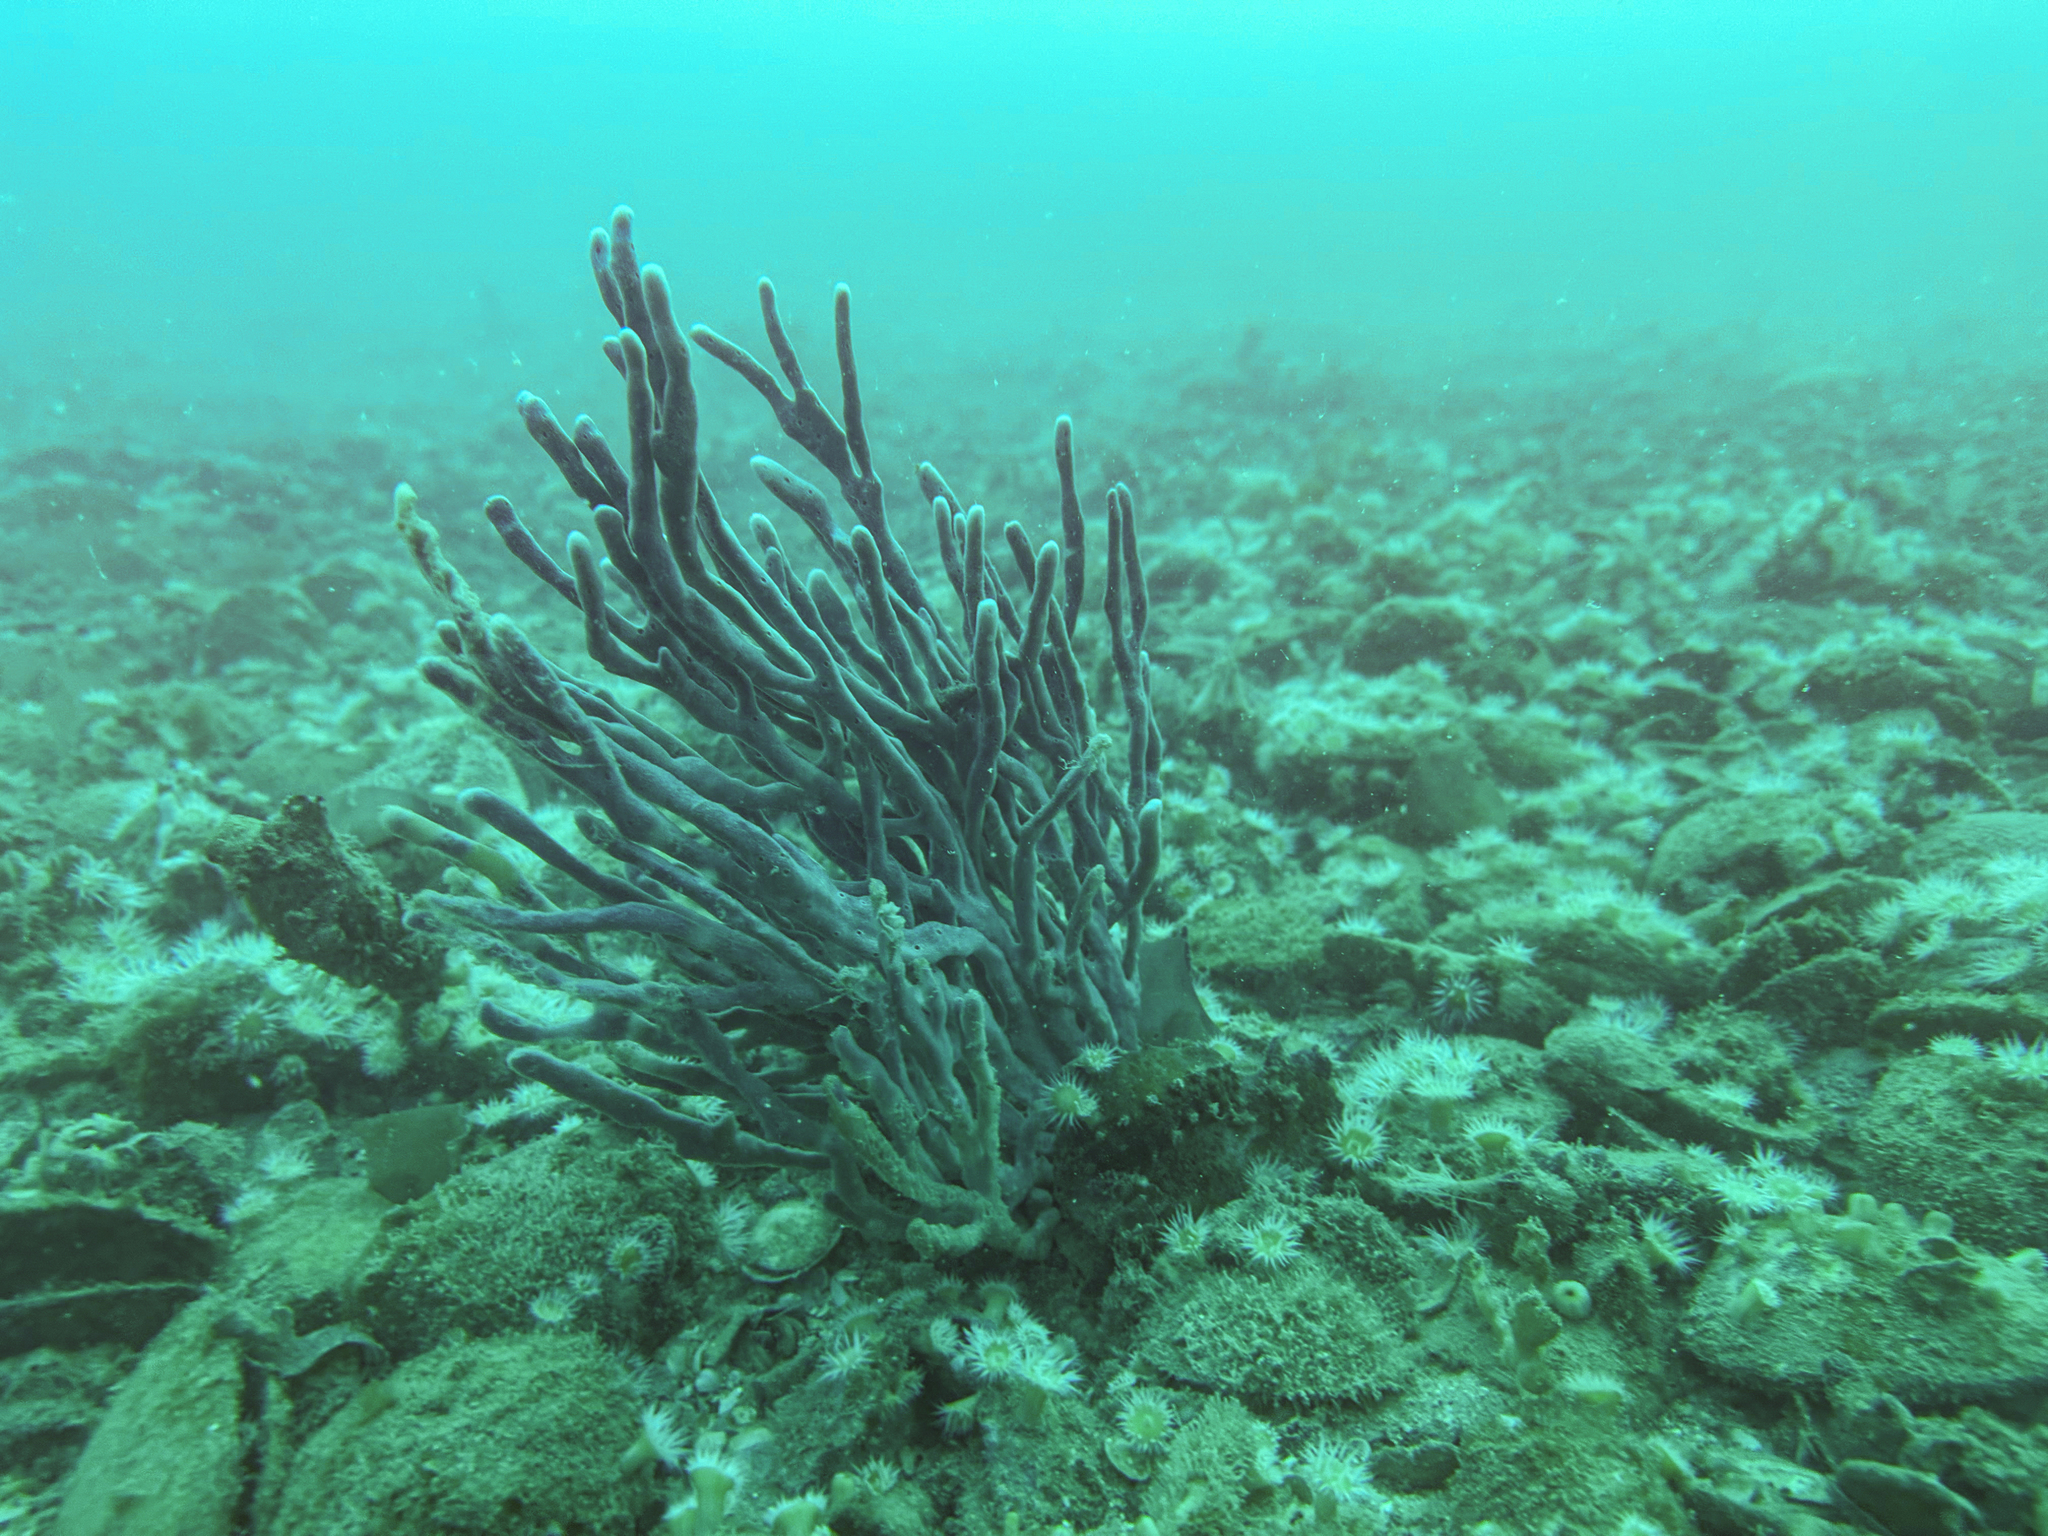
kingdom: Animalia
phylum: Porifera
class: Demospongiae
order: Haplosclerida
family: Callyspongiidae
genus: Callyspongia
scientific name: Callyspongia nuda
